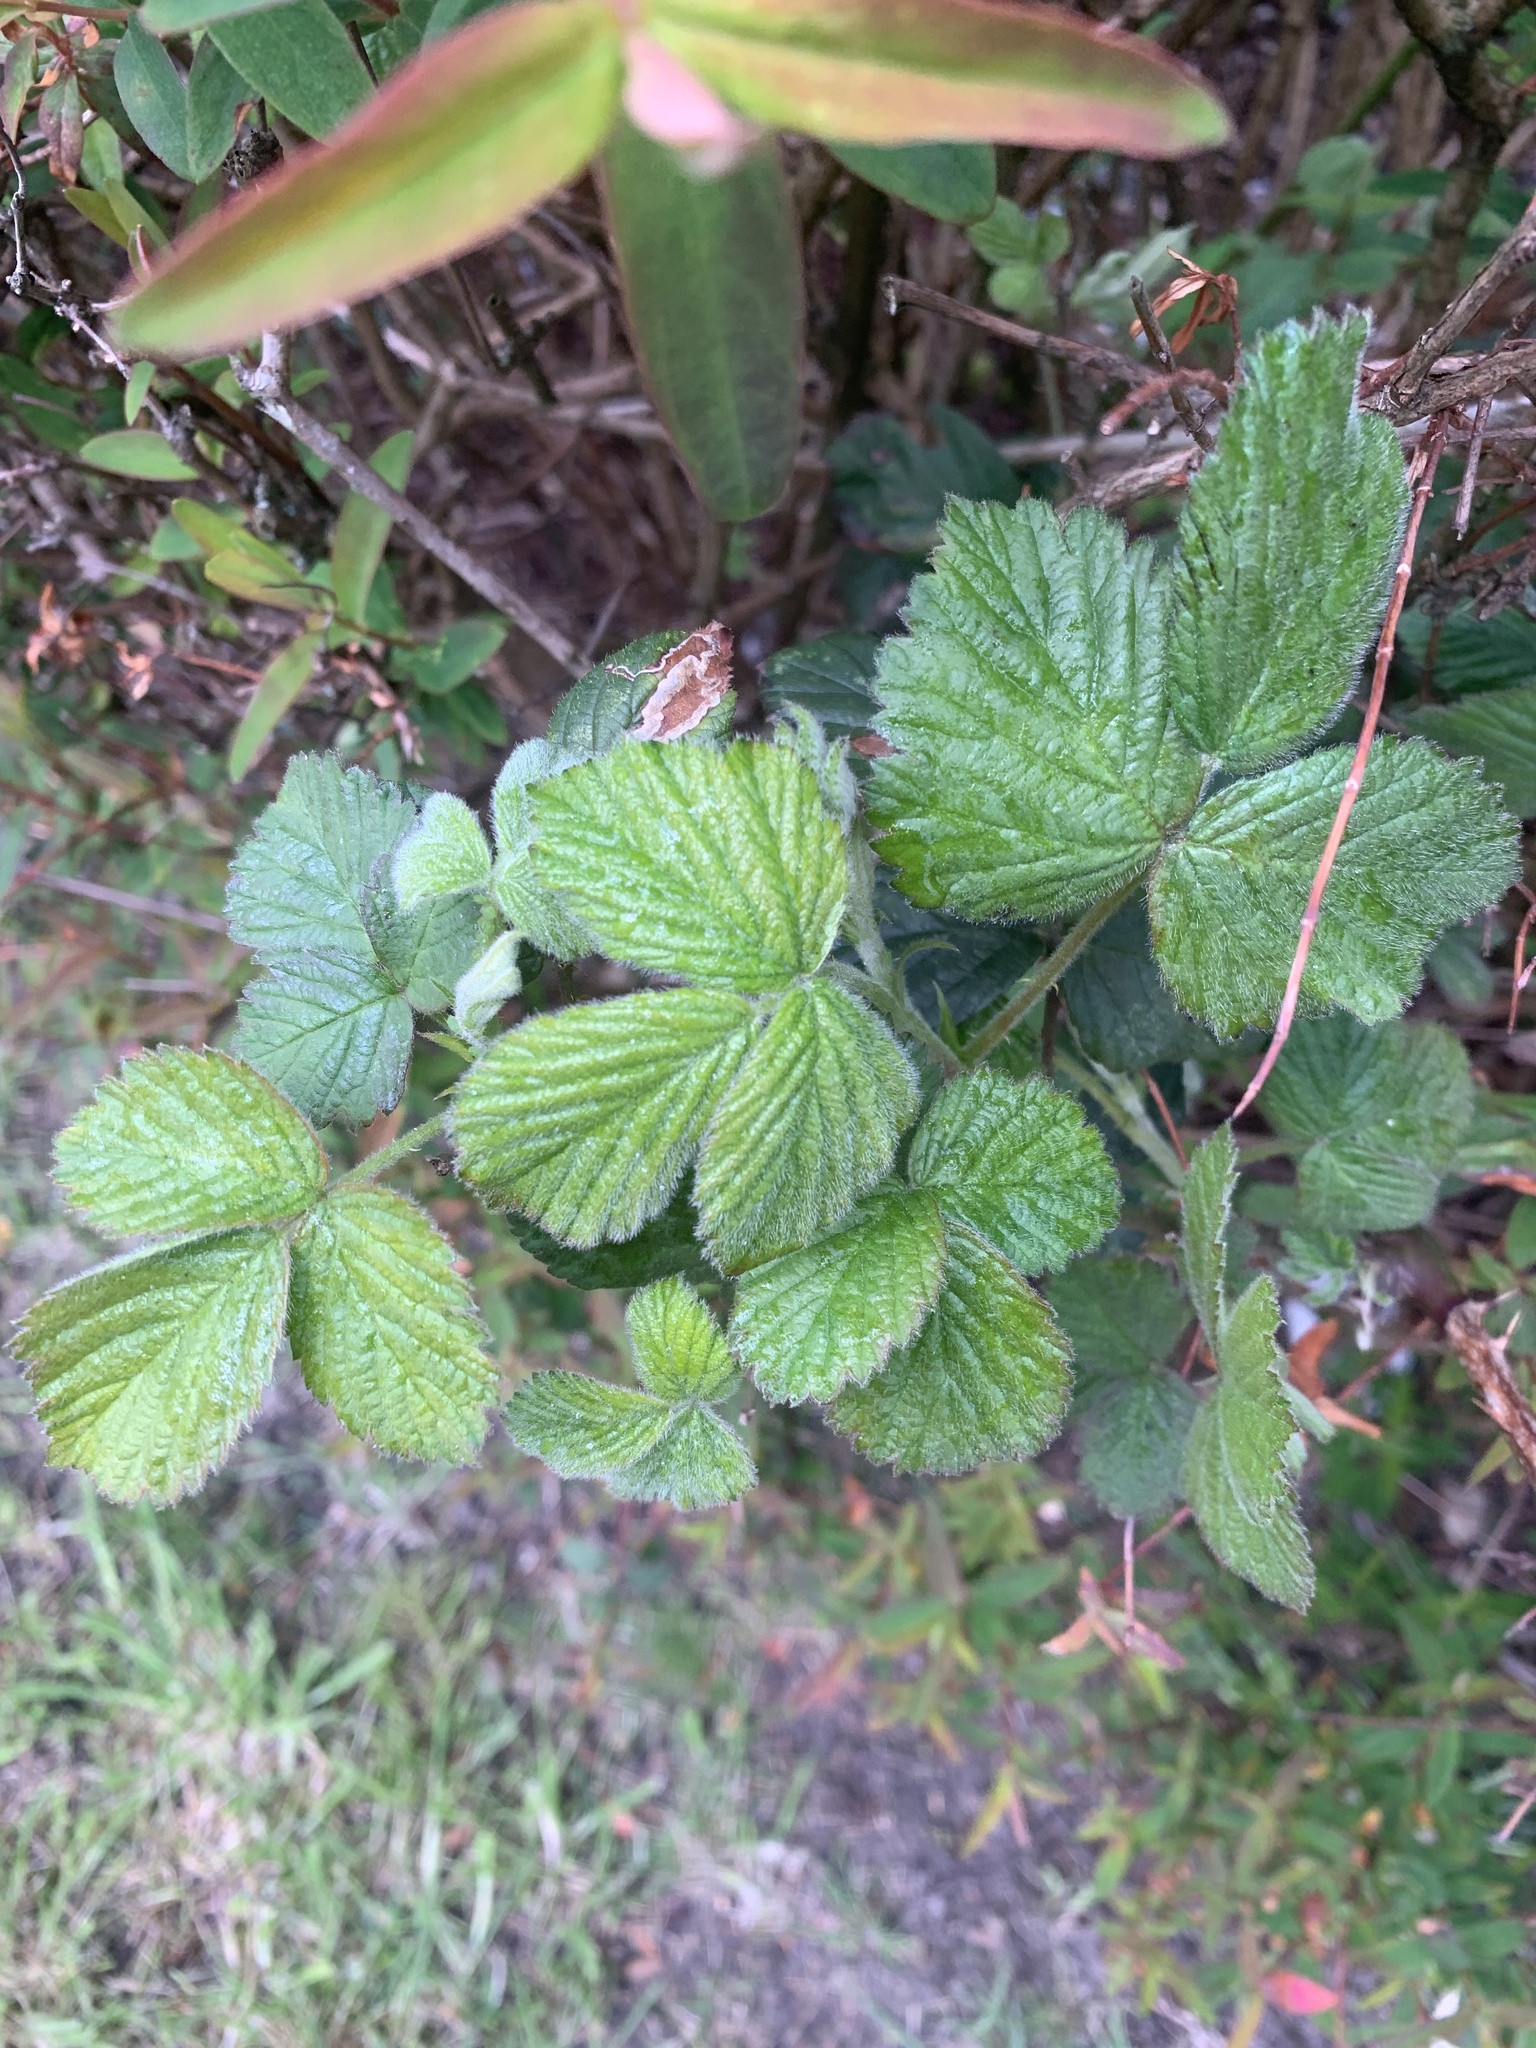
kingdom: Plantae
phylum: Tracheophyta
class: Magnoliopsida
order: Rosales
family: Rosaceae
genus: Rubus
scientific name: Rubus fruticosus
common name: Blackberry, bramble
